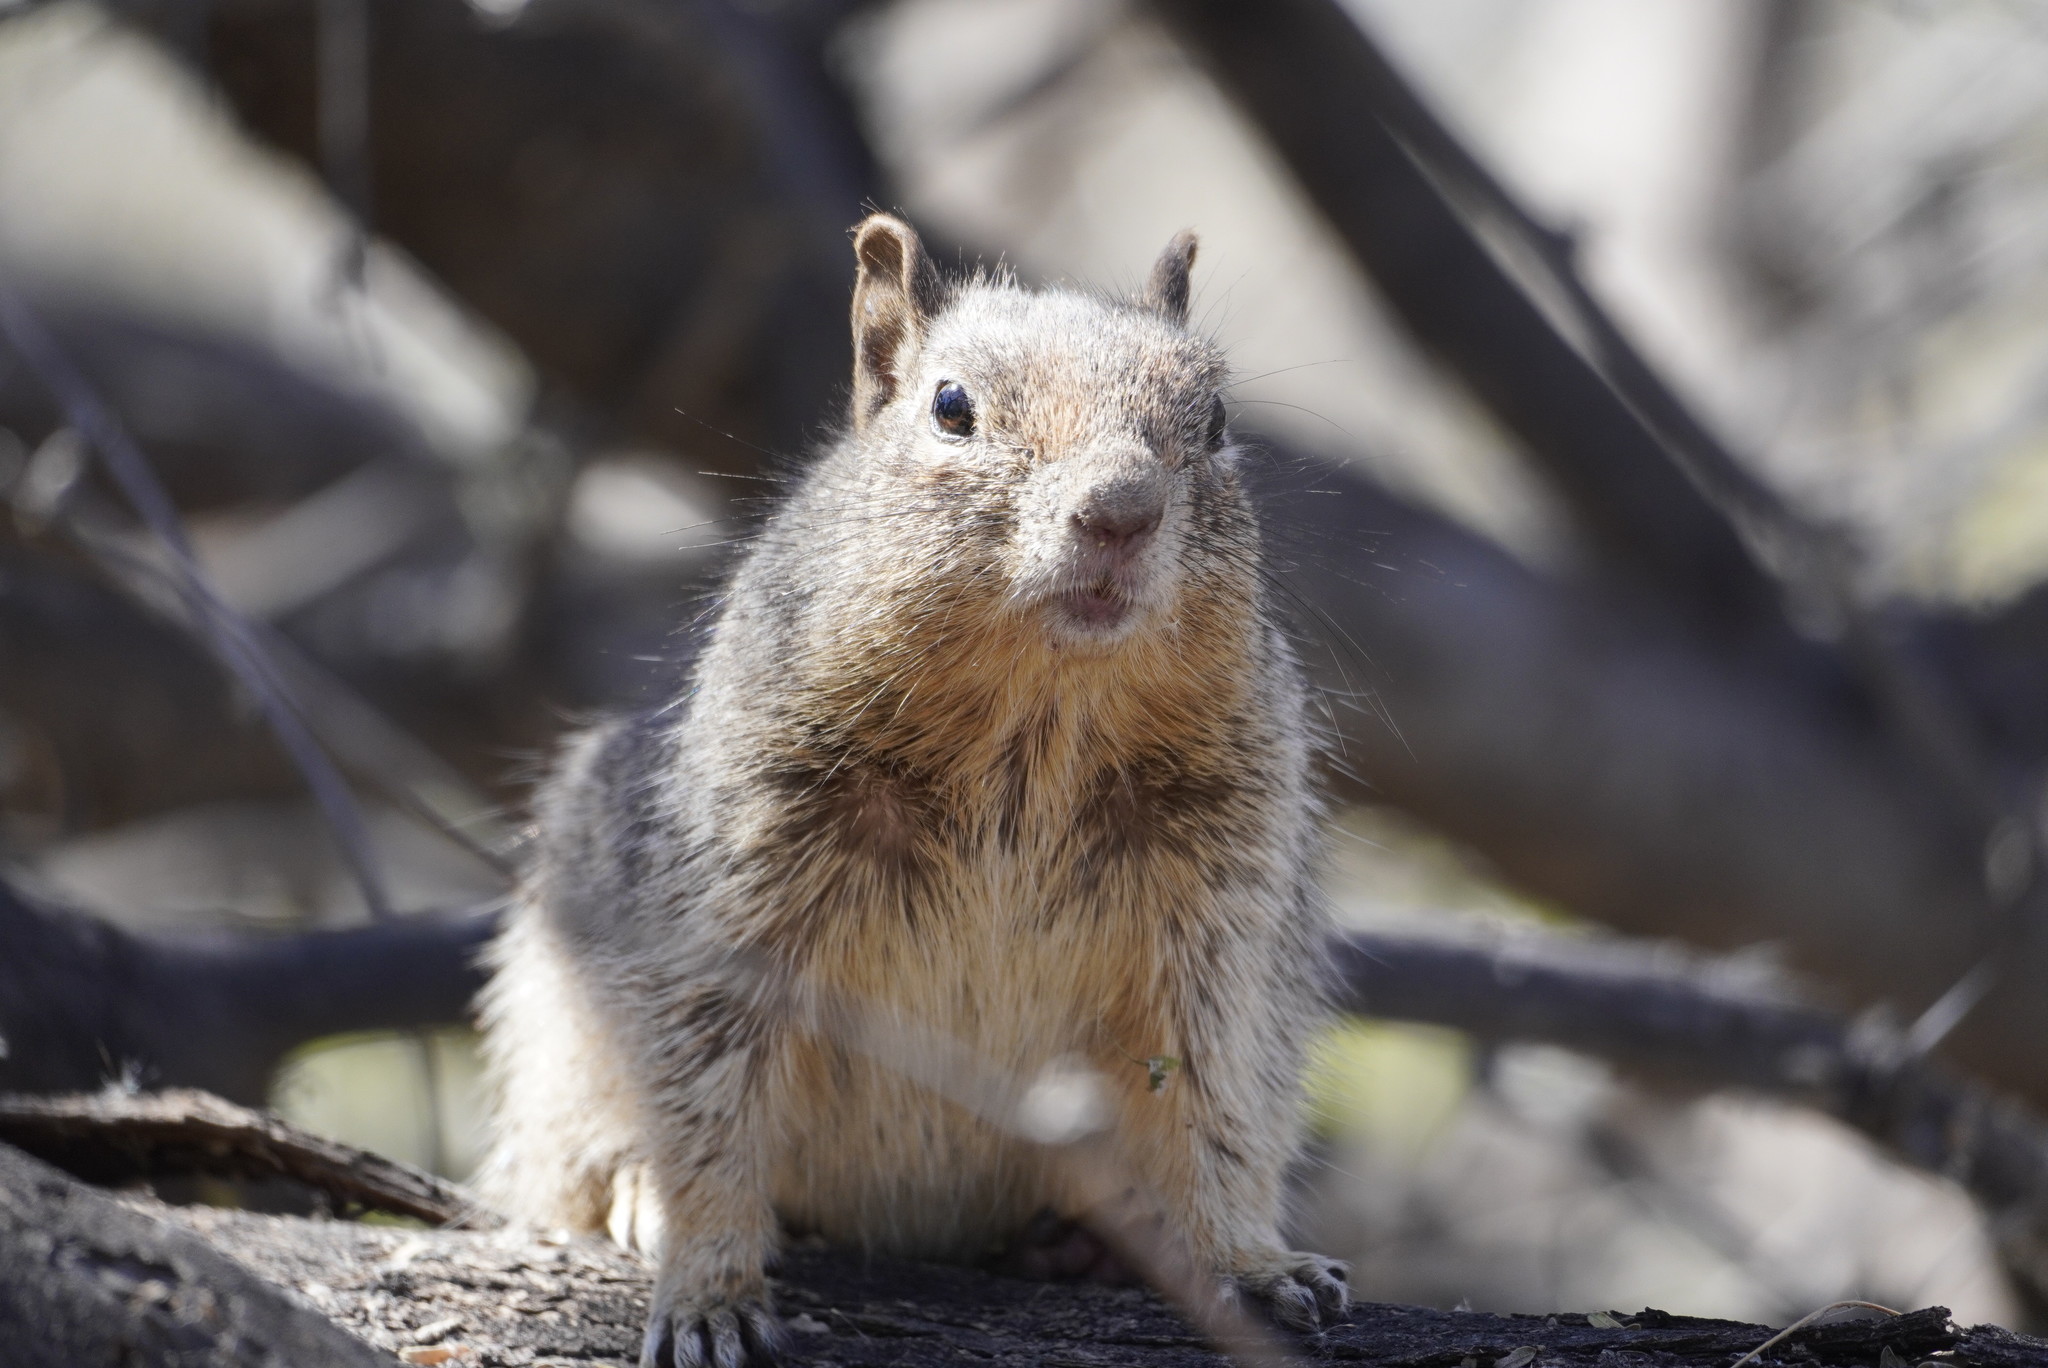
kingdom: Animalia
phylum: Chordata
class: Mammalia
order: Rodentia
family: Sciuridae
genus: Otospermophilus
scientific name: Otospermophilus variegatus
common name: Rock squirrel
